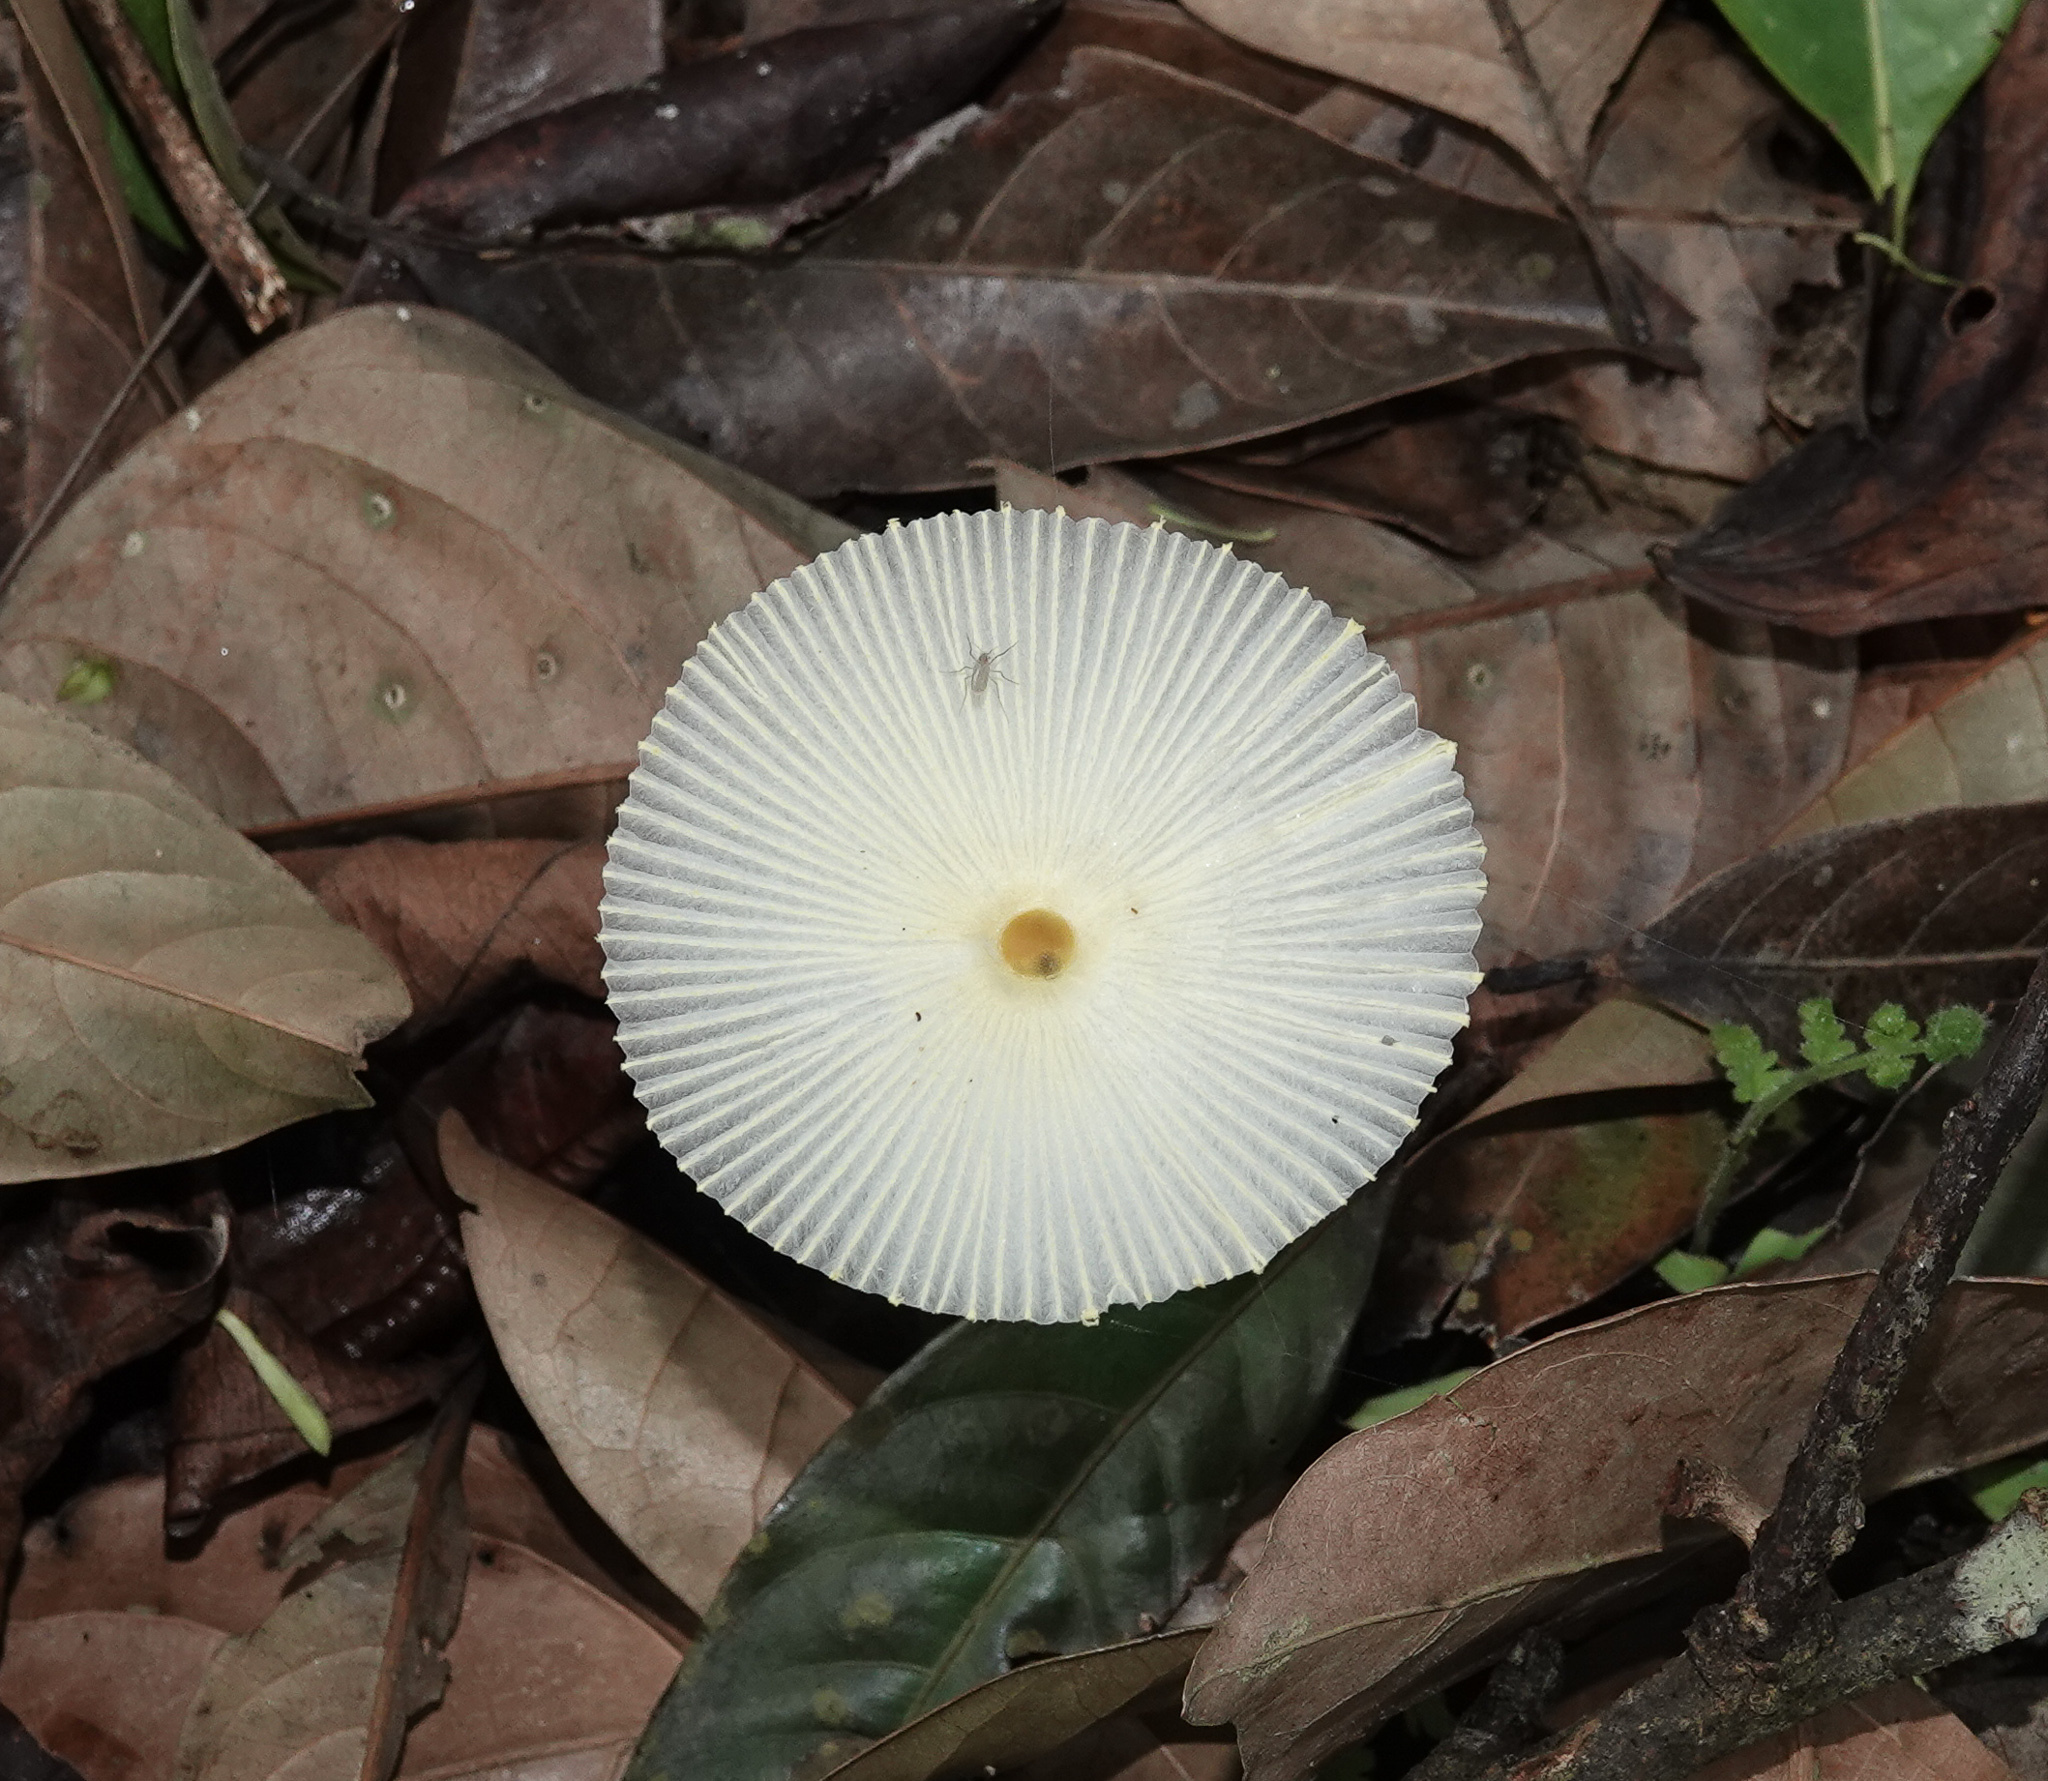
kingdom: Fungi
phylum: Basidiomycota
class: Agaricomycetes
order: Agaricales
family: Agaricaceae
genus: Leucocoprinus
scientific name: Leucocoprinus fragilissimus
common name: Fragile dapperling
